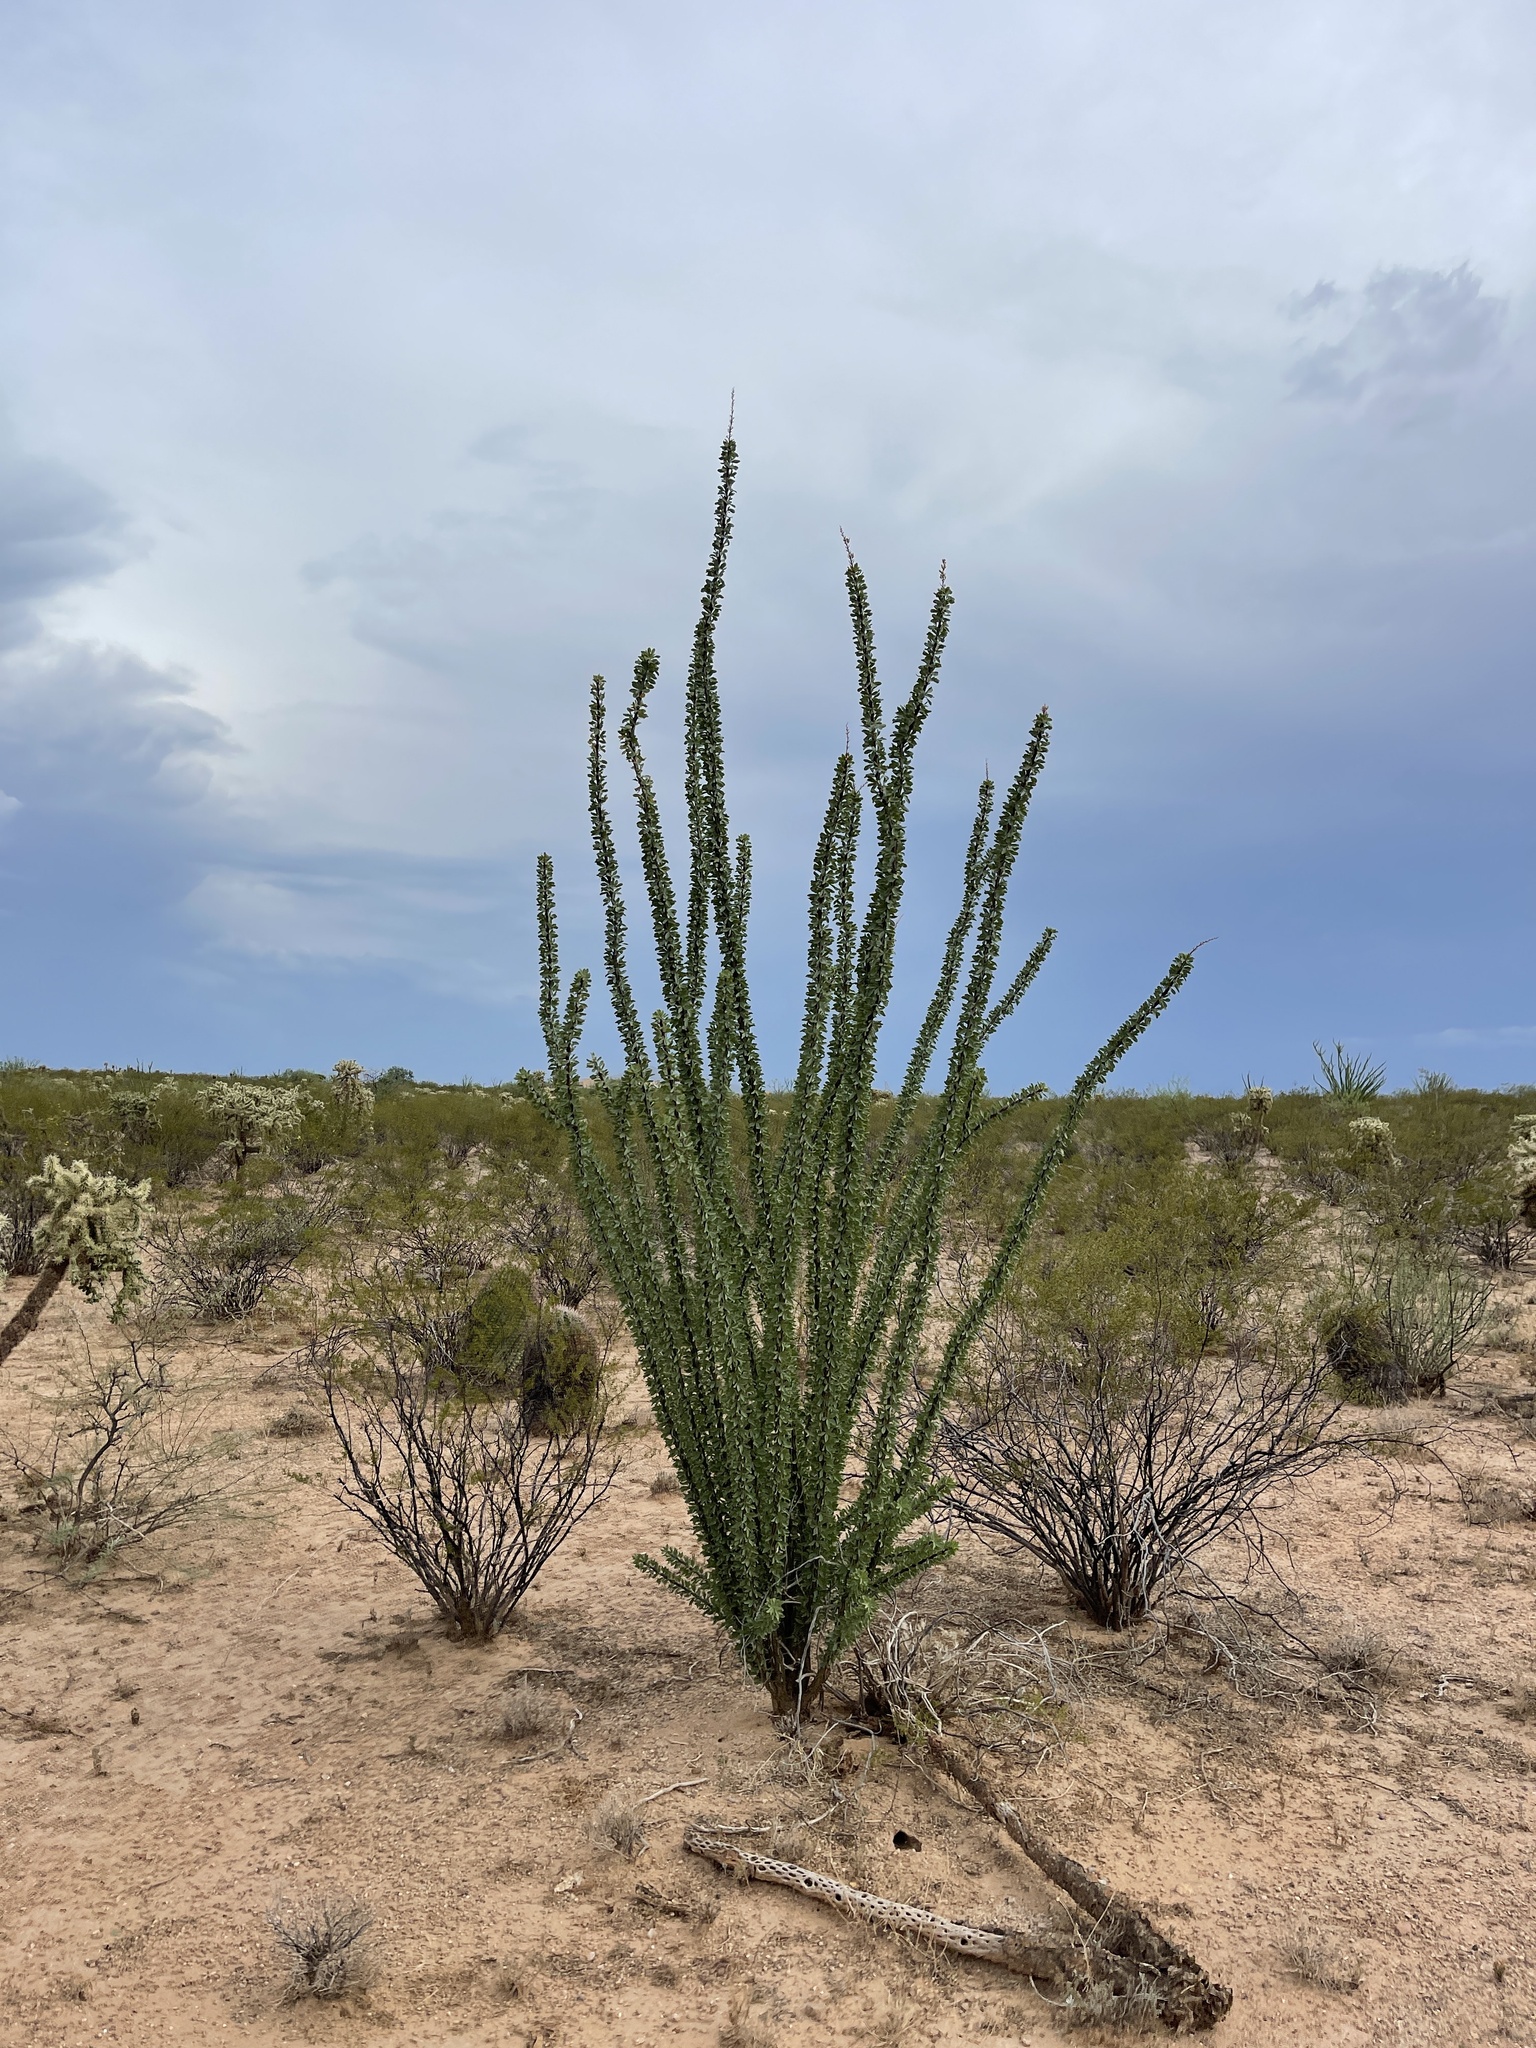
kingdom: Plantae
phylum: Tracheophyta
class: Magnoliopsida
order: Ericales
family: Fouquieriaceae
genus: Fouquieria
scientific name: Fouquieria splendens
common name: Vine-cactus
